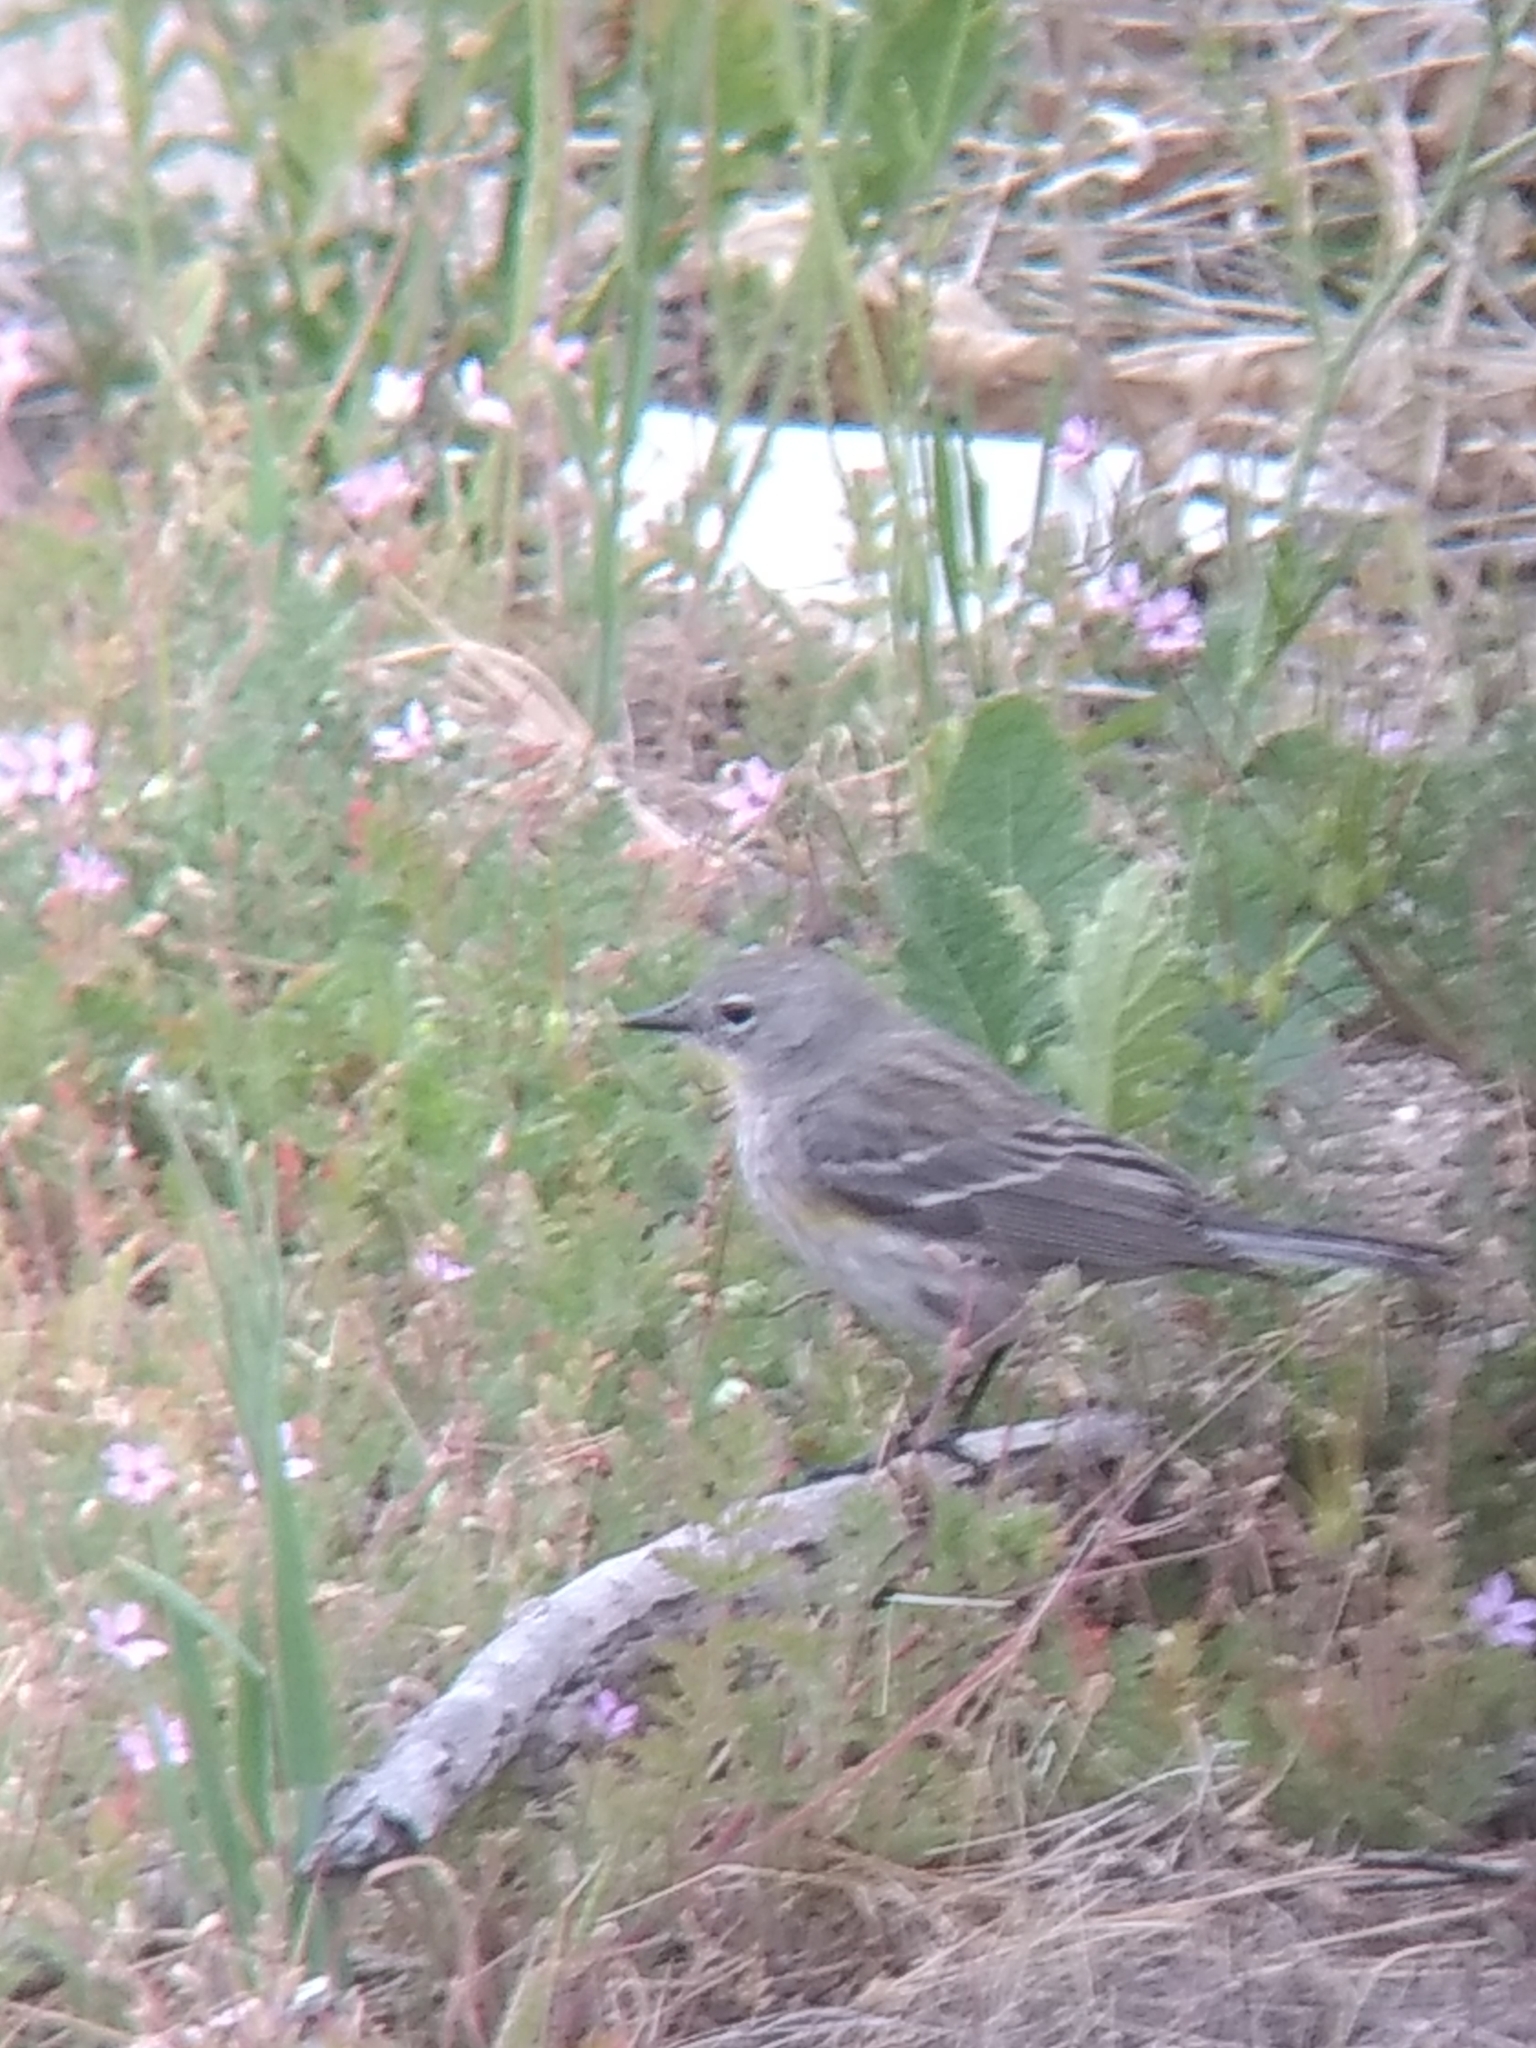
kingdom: Animalia
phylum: Chordata
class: Aves
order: Passeriformes
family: Parulidae
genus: Setophaga
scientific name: Setophaga coronata
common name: Myrtle warbler
